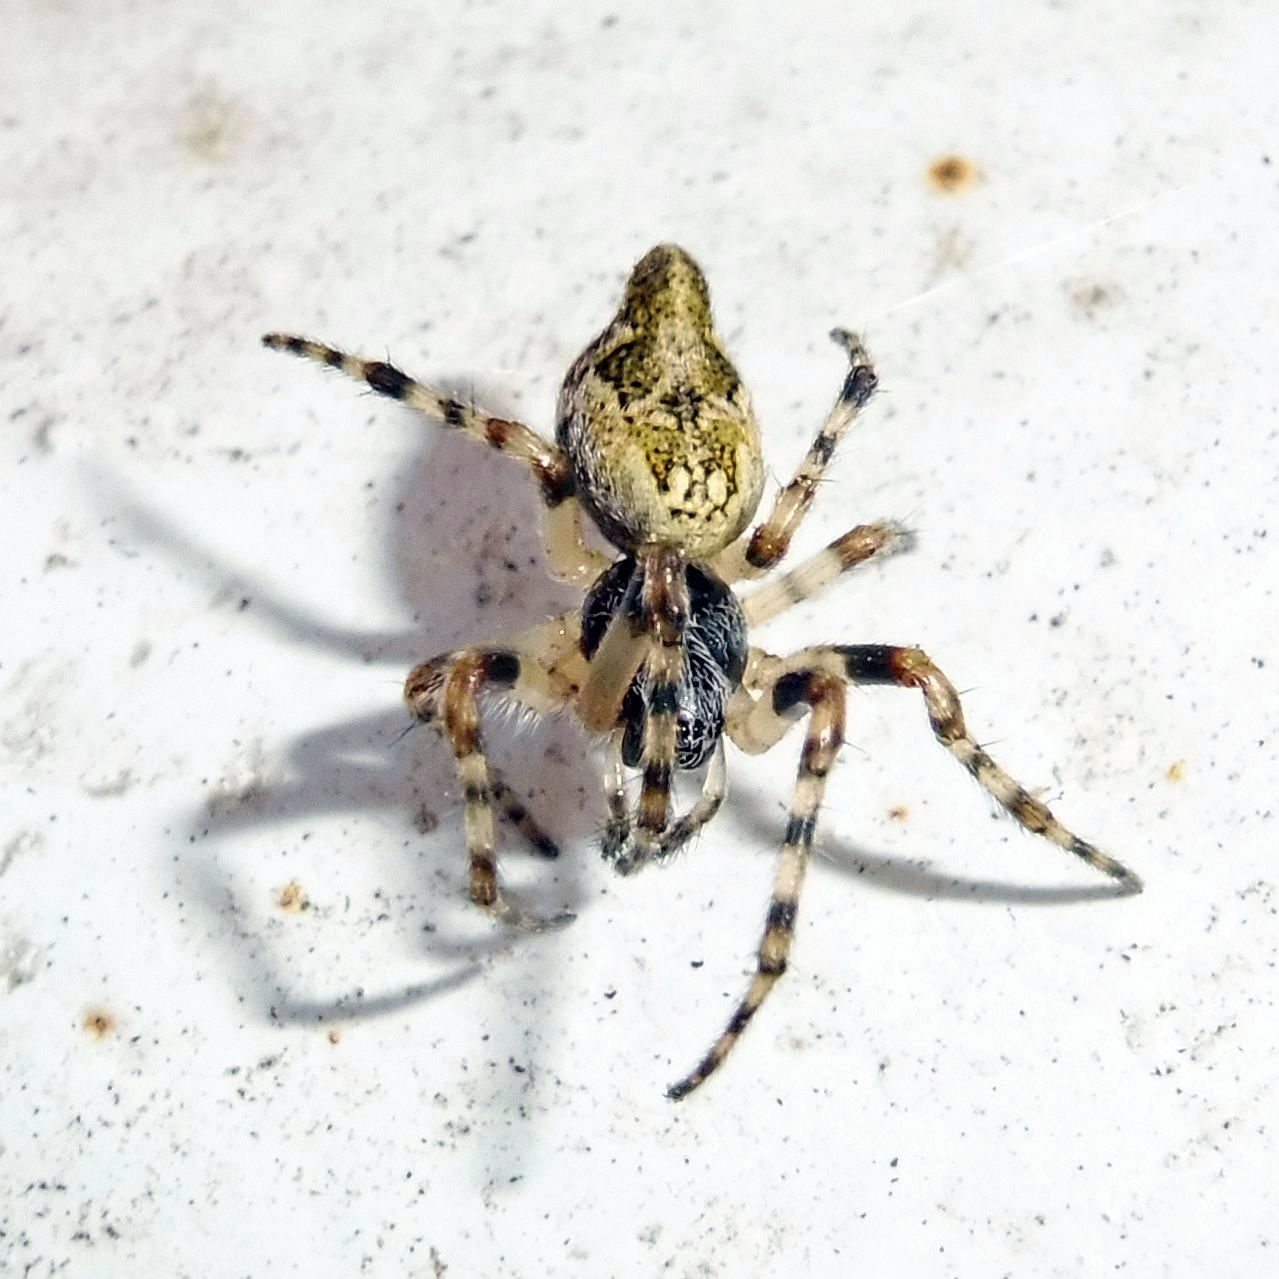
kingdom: Animalia
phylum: Arthropoda
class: Arachnida
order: Araneae
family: Araneidae
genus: Cyclosa
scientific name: Cyclosa conica
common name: Conical trashline orbweaver
